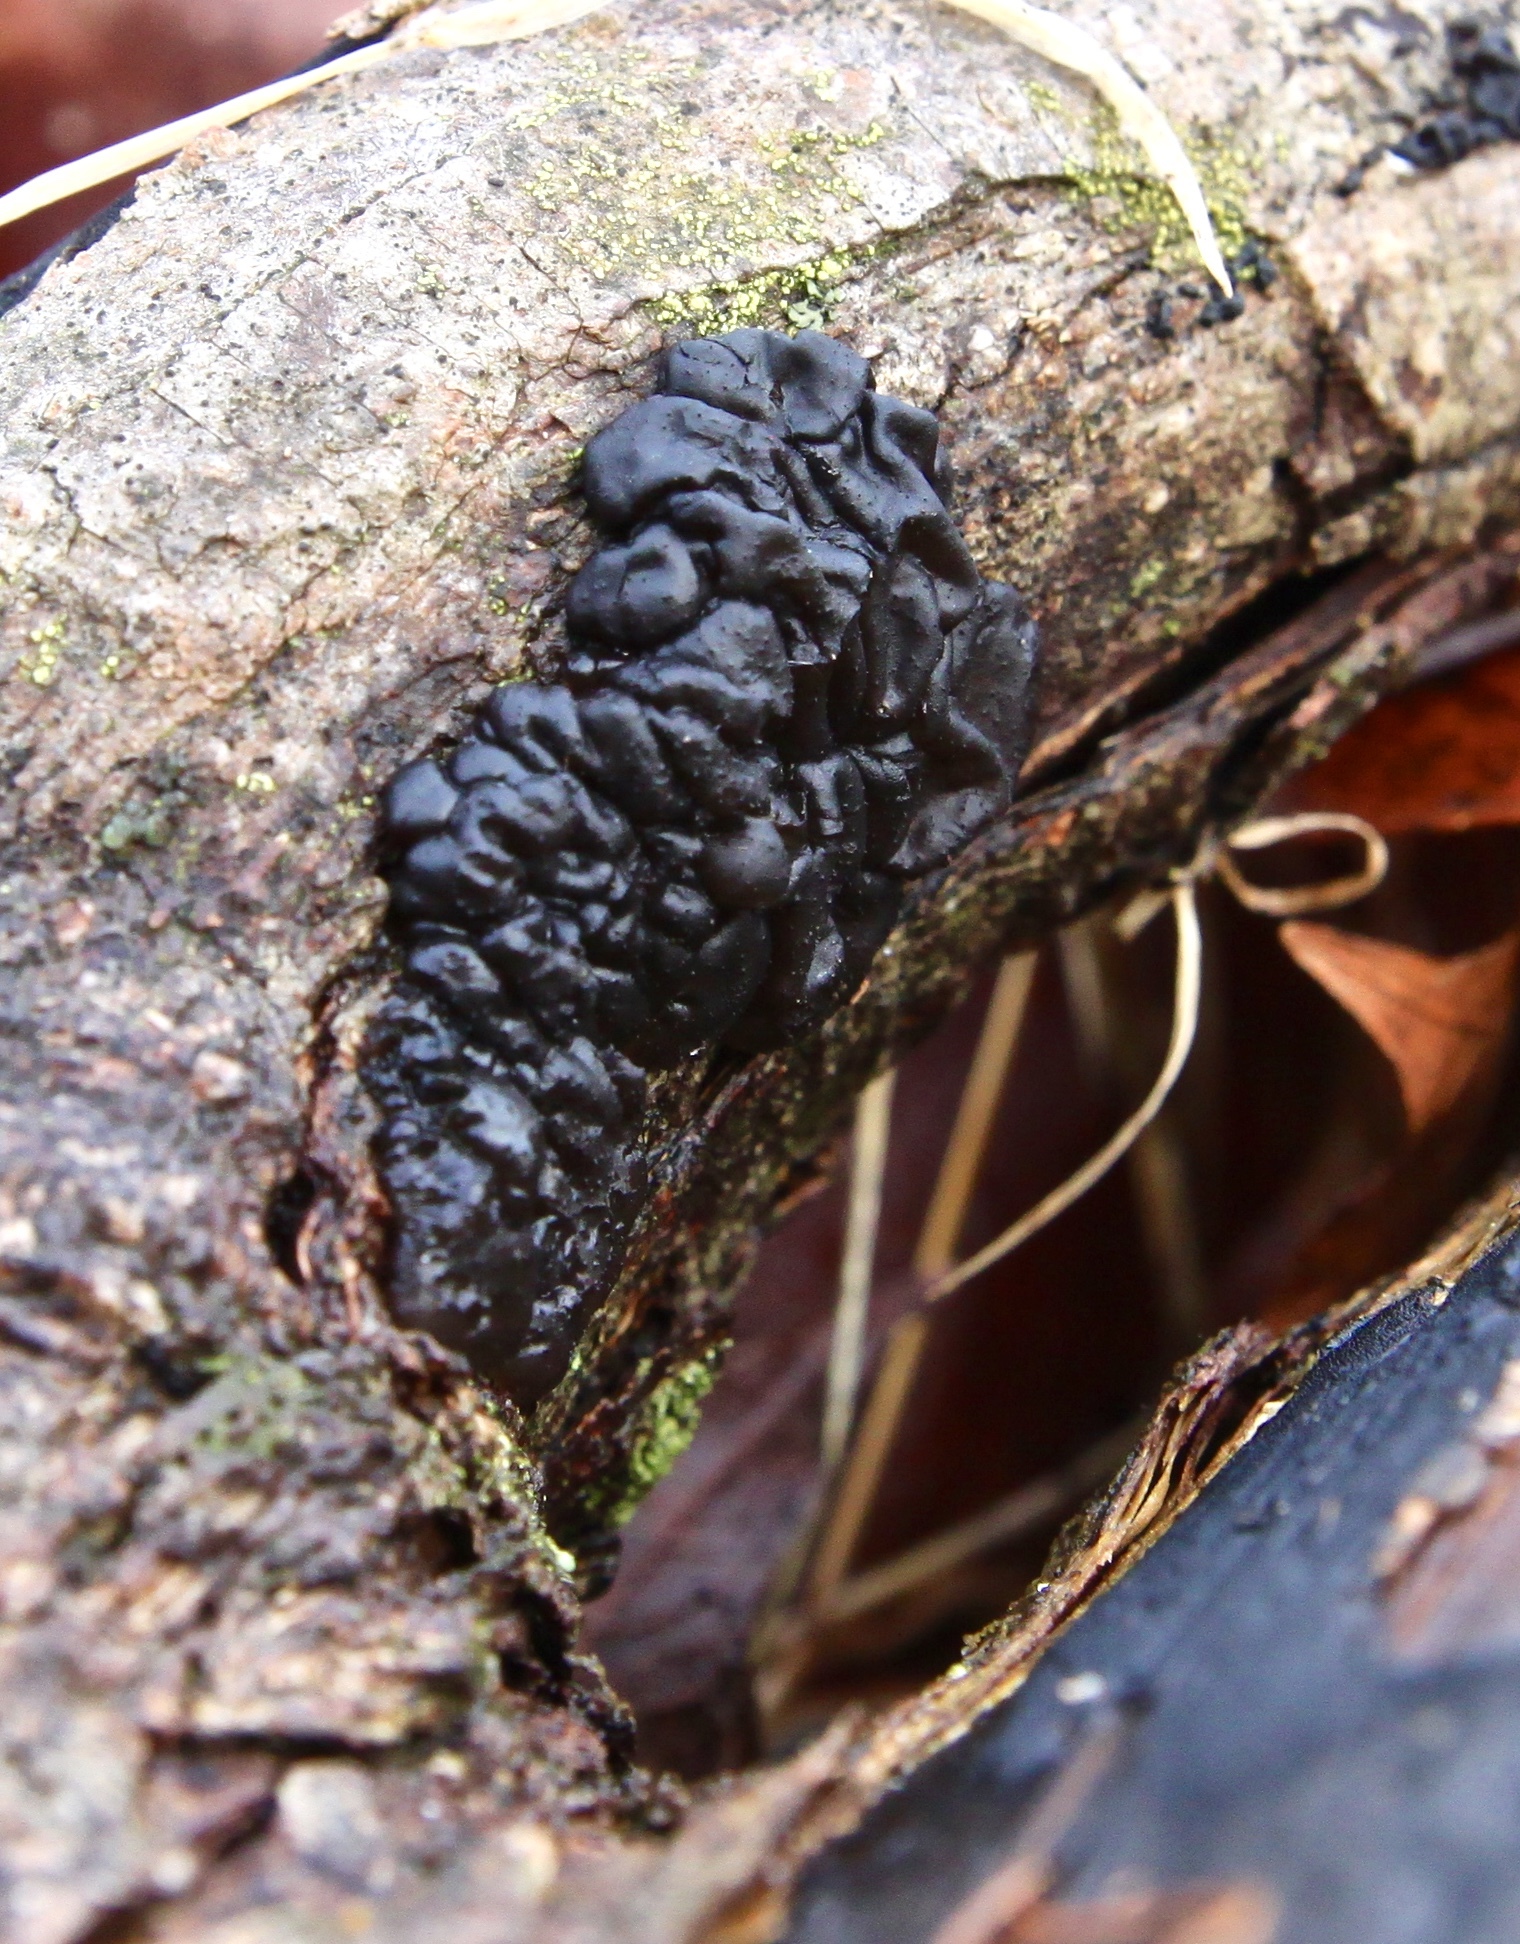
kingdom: Fungi
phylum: Basidiomycota
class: Agaricomycetes
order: Auriculariales
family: Auriculariaceae
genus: Exidia
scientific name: Exidia glandulosa
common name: Witches' butter
